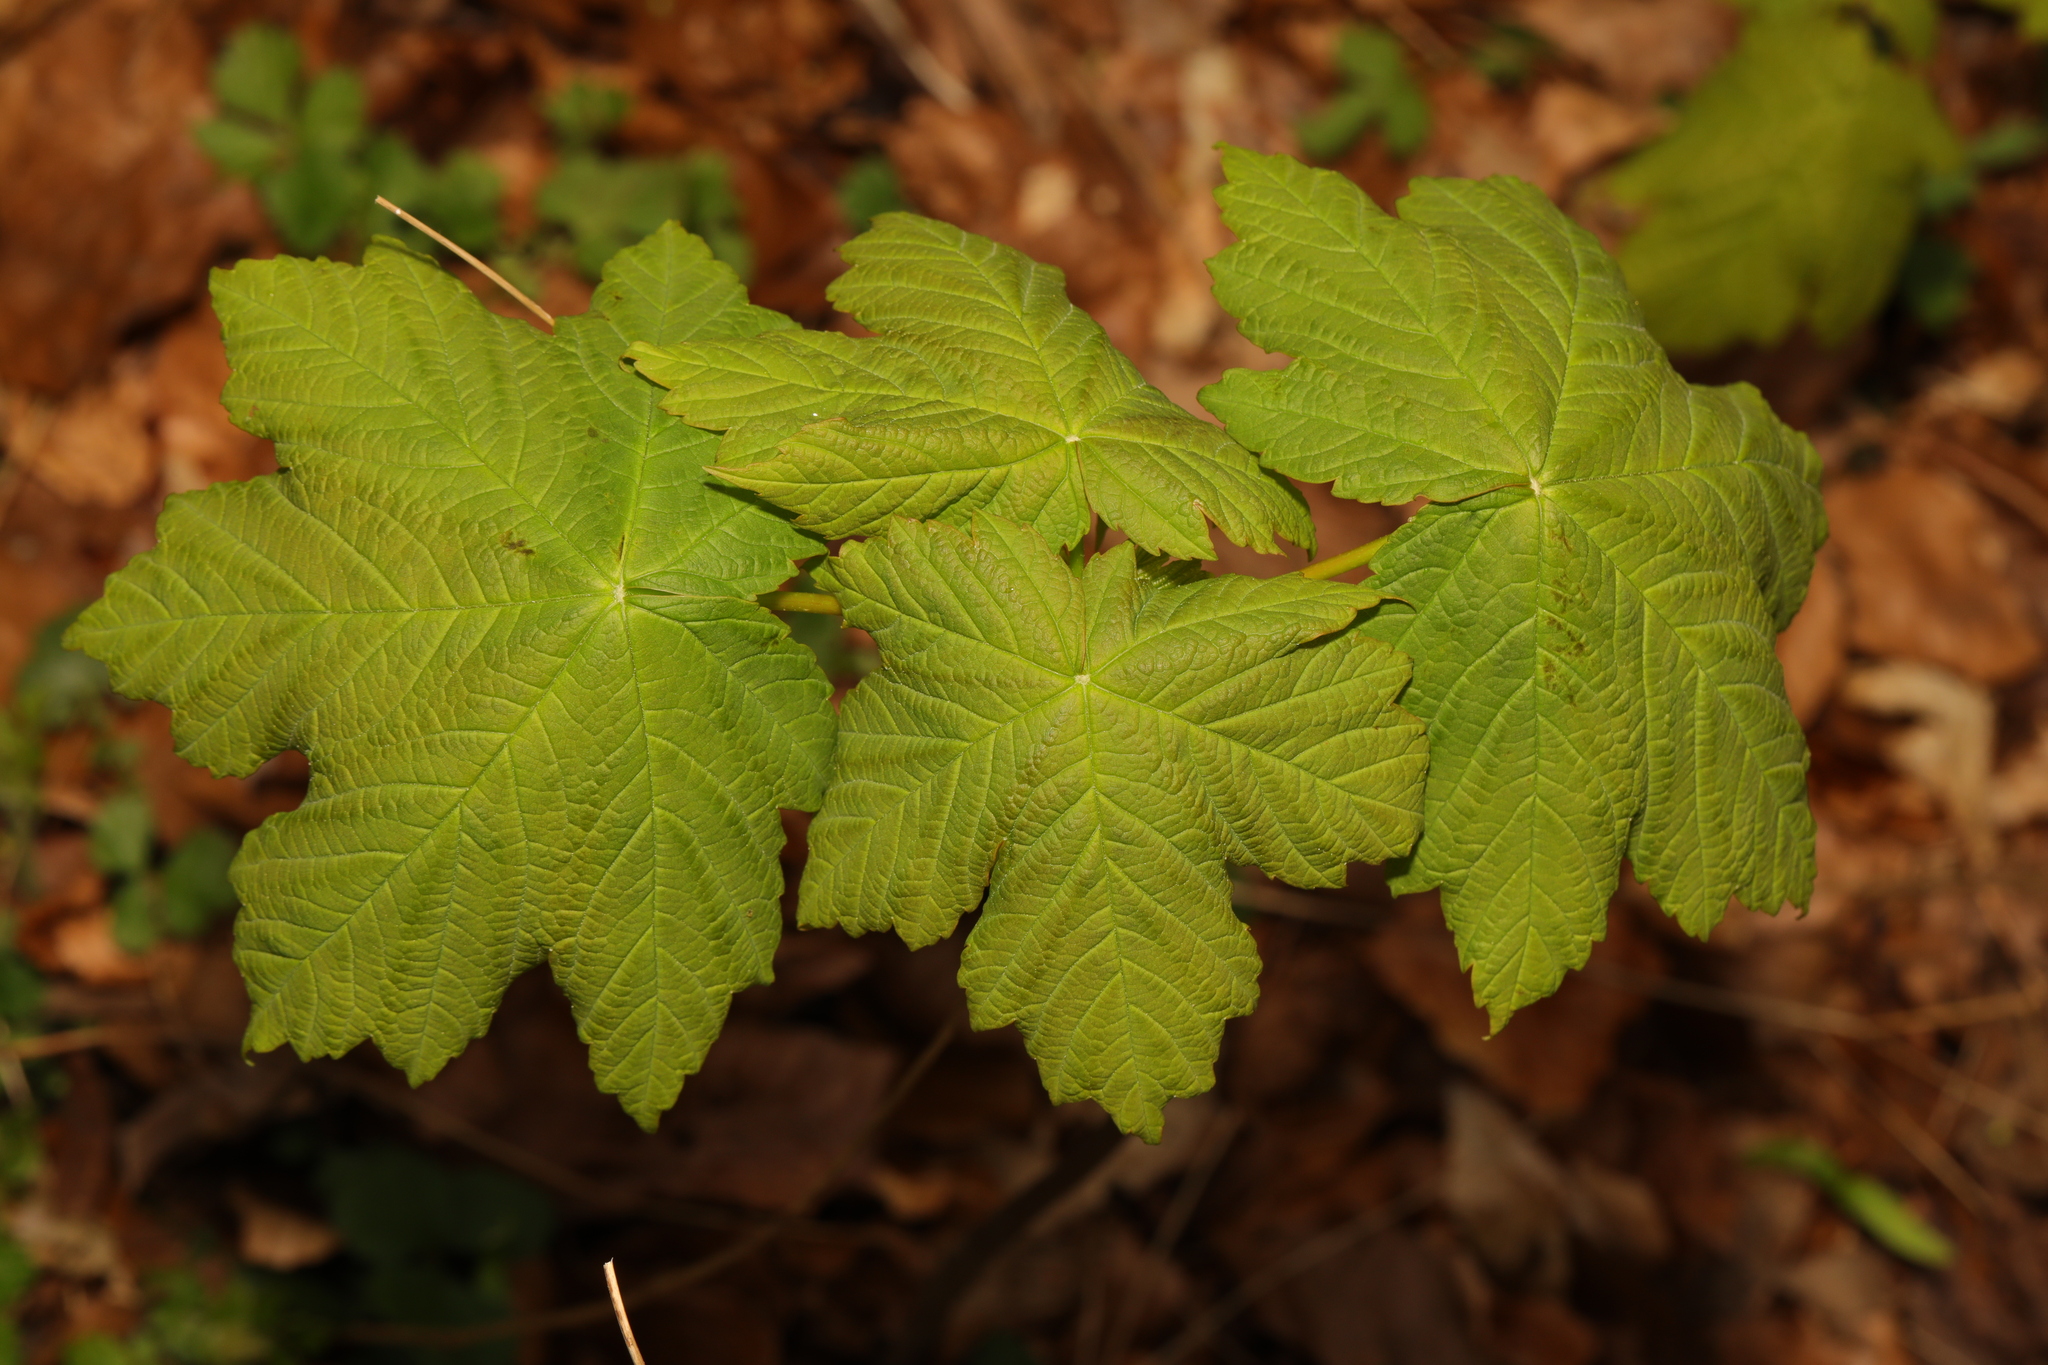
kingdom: Plantae
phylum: Tracheophyta
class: Magnoliopsida
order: Sapindales
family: Sapindaceae
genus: Acer
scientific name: Acer pseudoplatanus
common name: Sycamore
